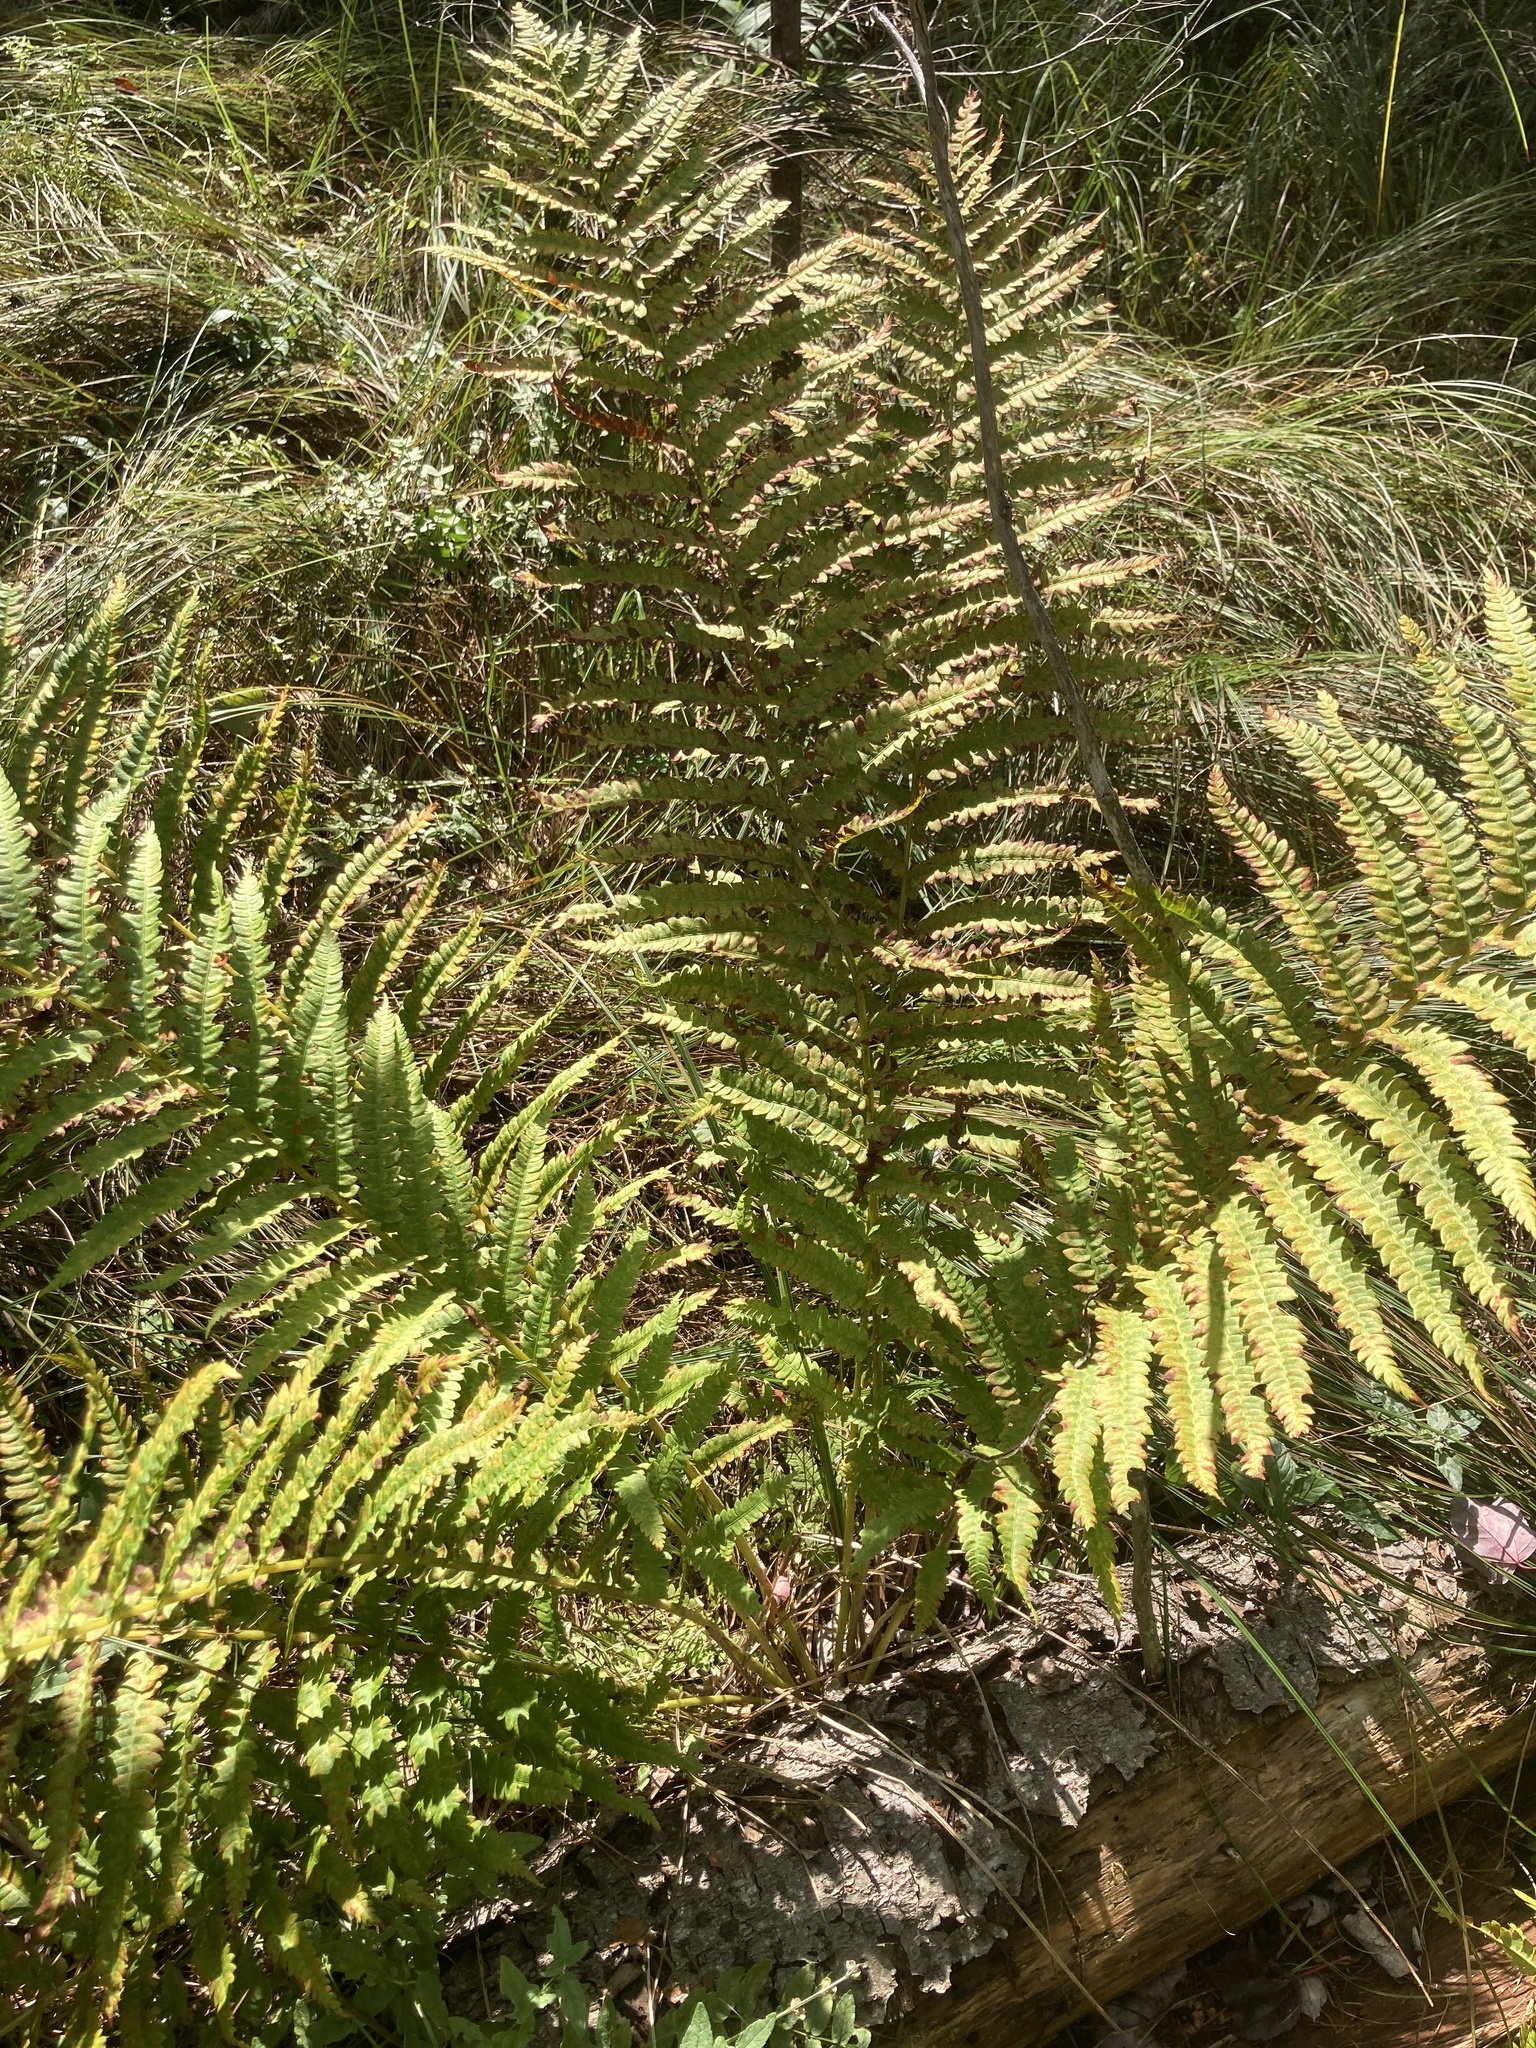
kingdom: Plantae
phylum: Tracheophyta
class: Polypodiopsida
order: Osmundales
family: Osmundaceae
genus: Osmundastrum
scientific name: Osmundastrum cinnamomeum
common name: Cinnamon fern
